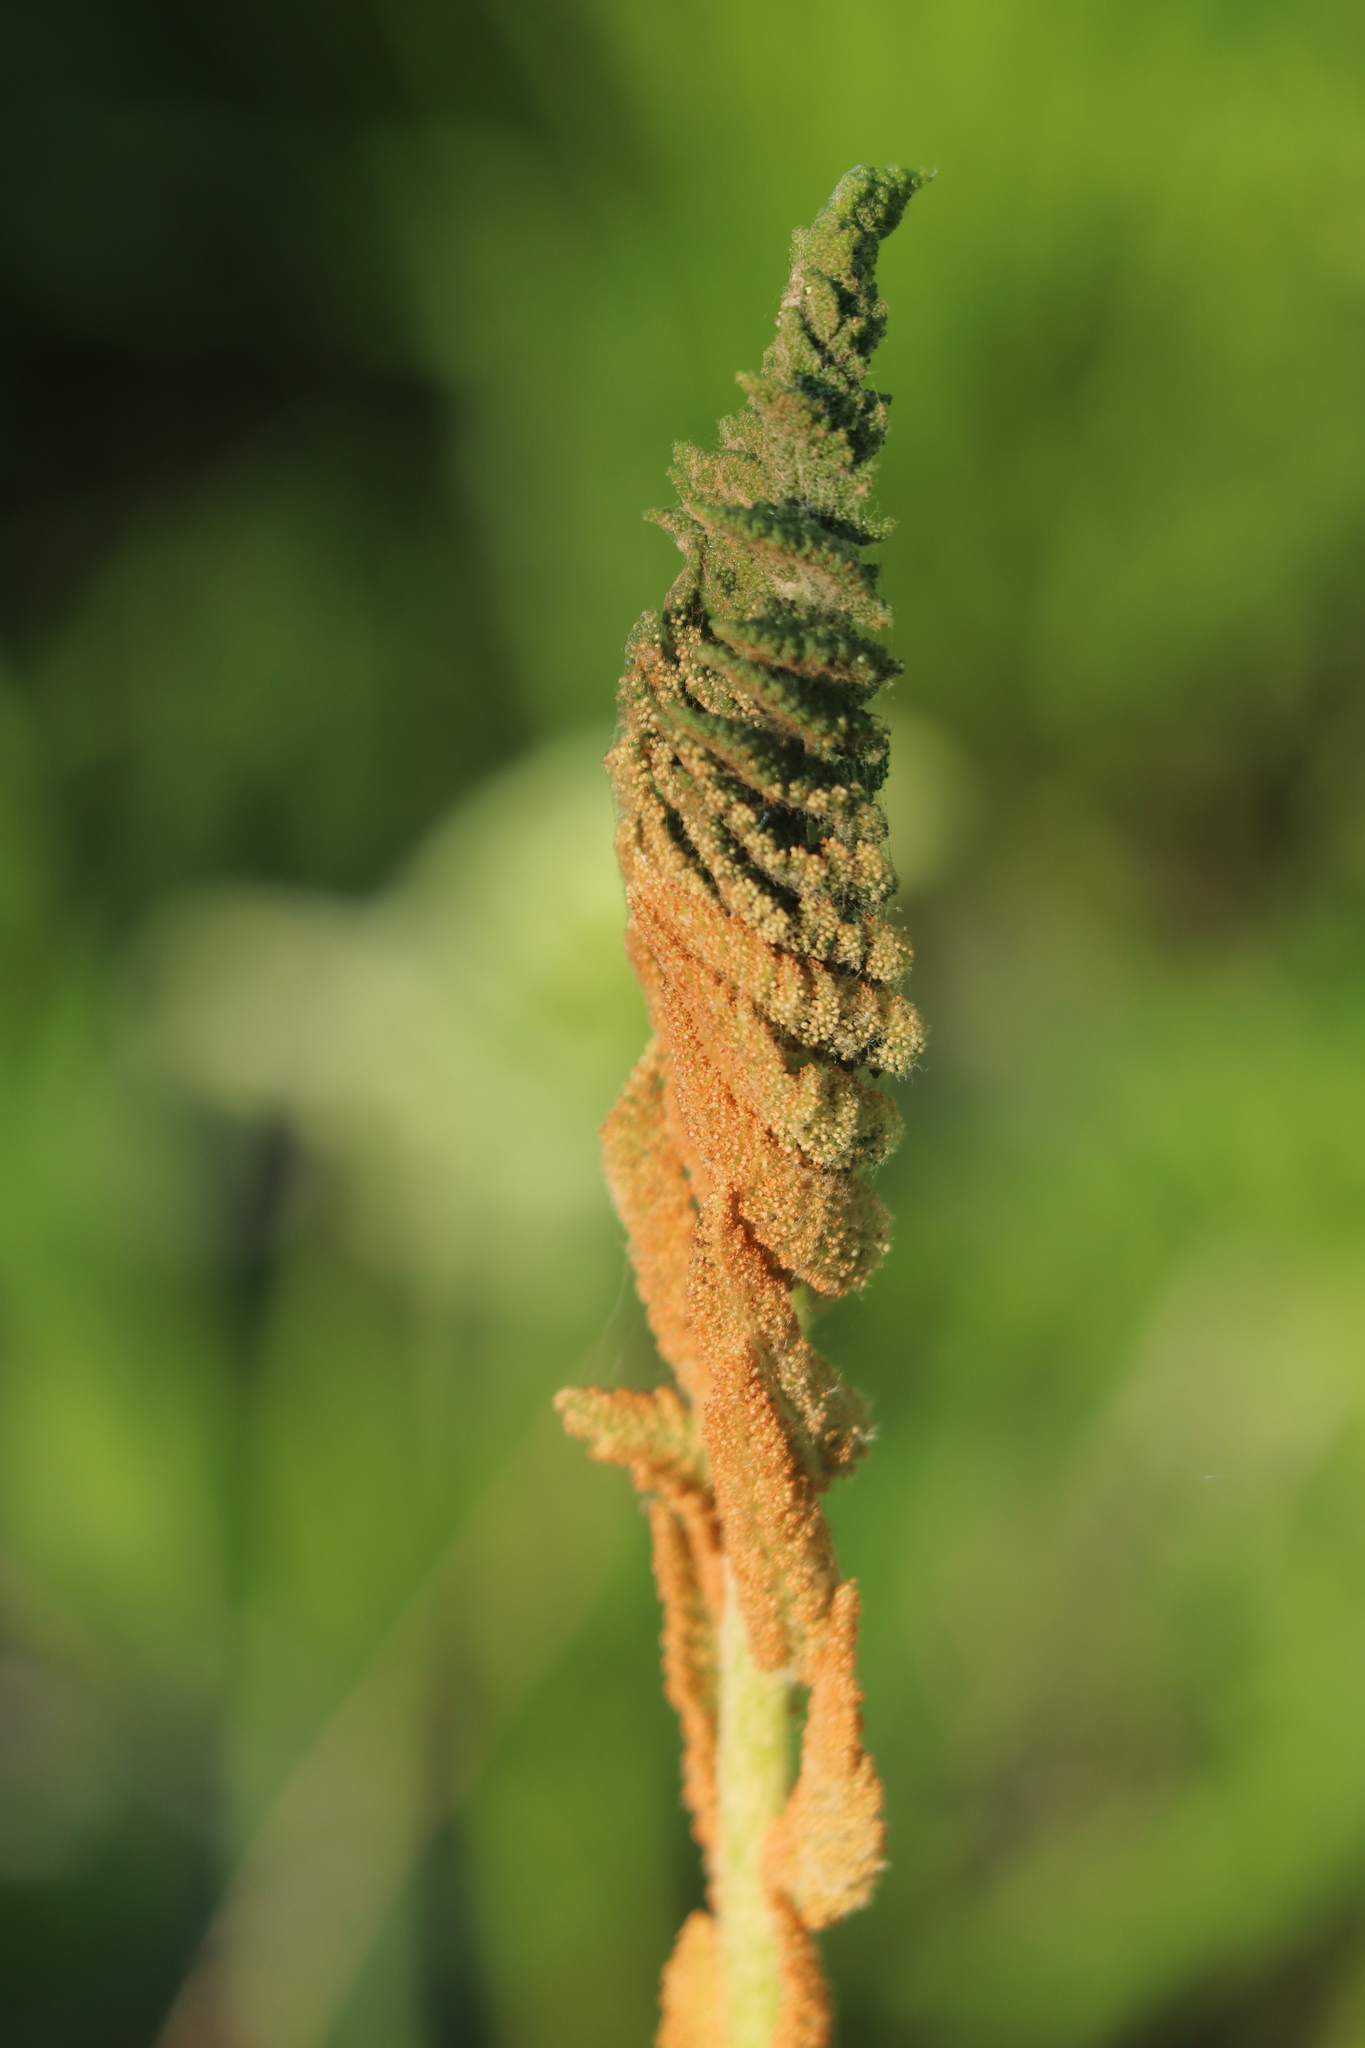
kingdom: Plantae
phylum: Tracheophyta
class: Polypodiopsida
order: Osmundales
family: Osmundaceae
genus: Osmundastrum
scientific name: Osmundastrum cinnamomeum
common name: Cinnamon fern
